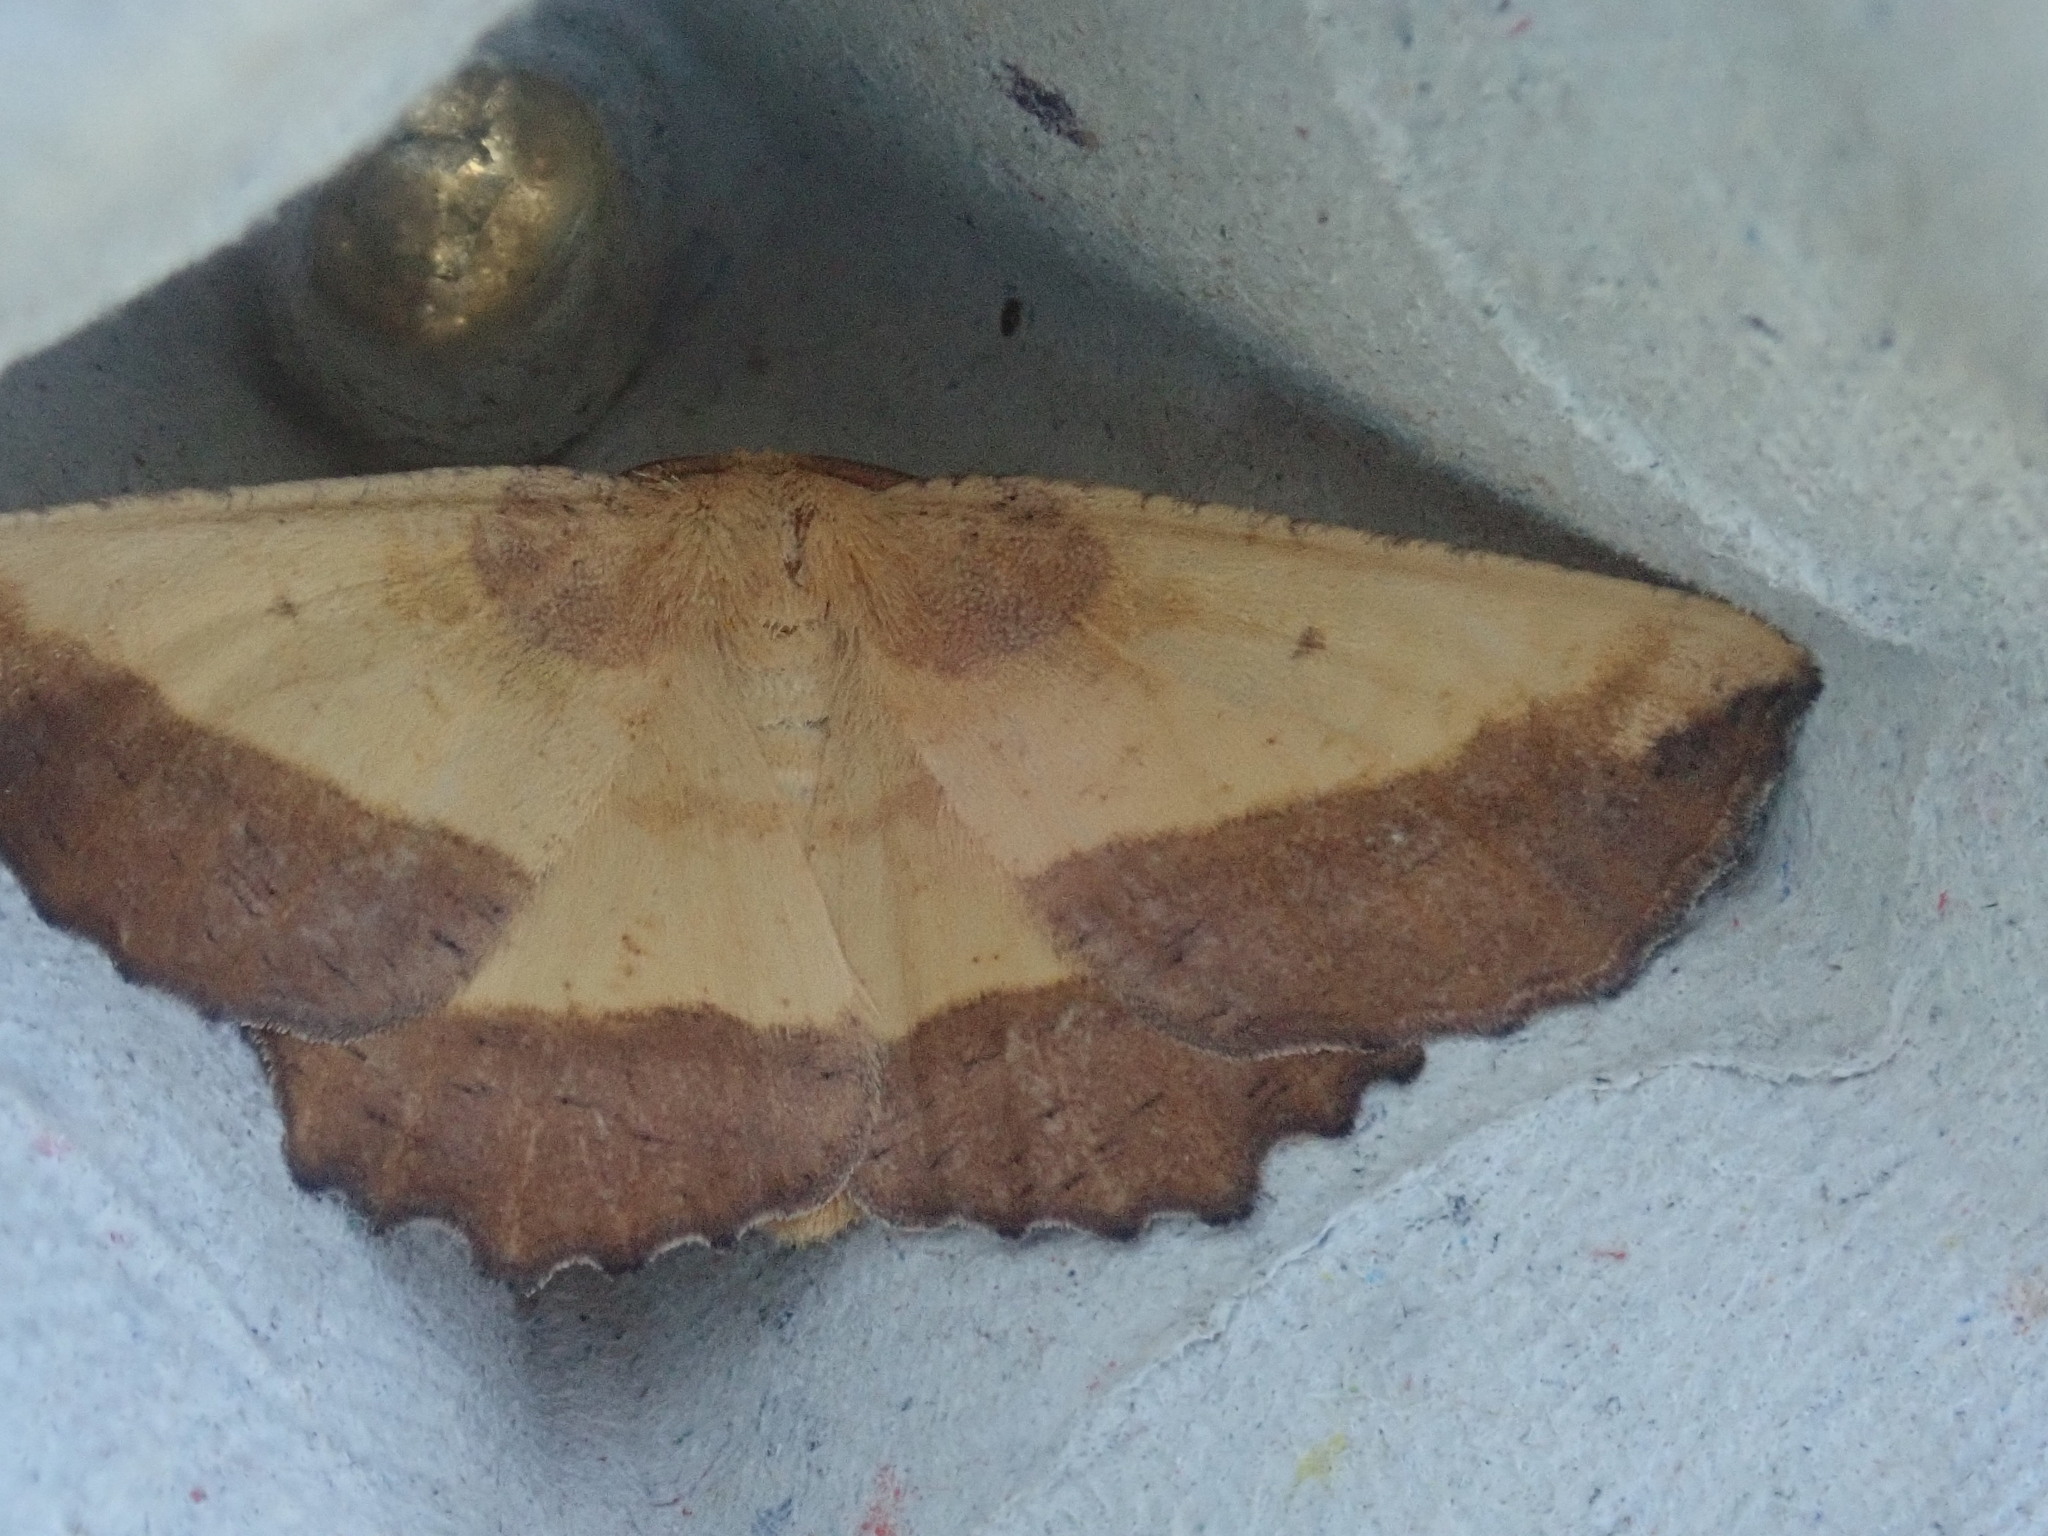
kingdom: Animalia
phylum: Arthropoda
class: Insecta
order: Lepidoptera
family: Geometridae
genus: Euchlaena
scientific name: Euchlaena serrata
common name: Saw wing
